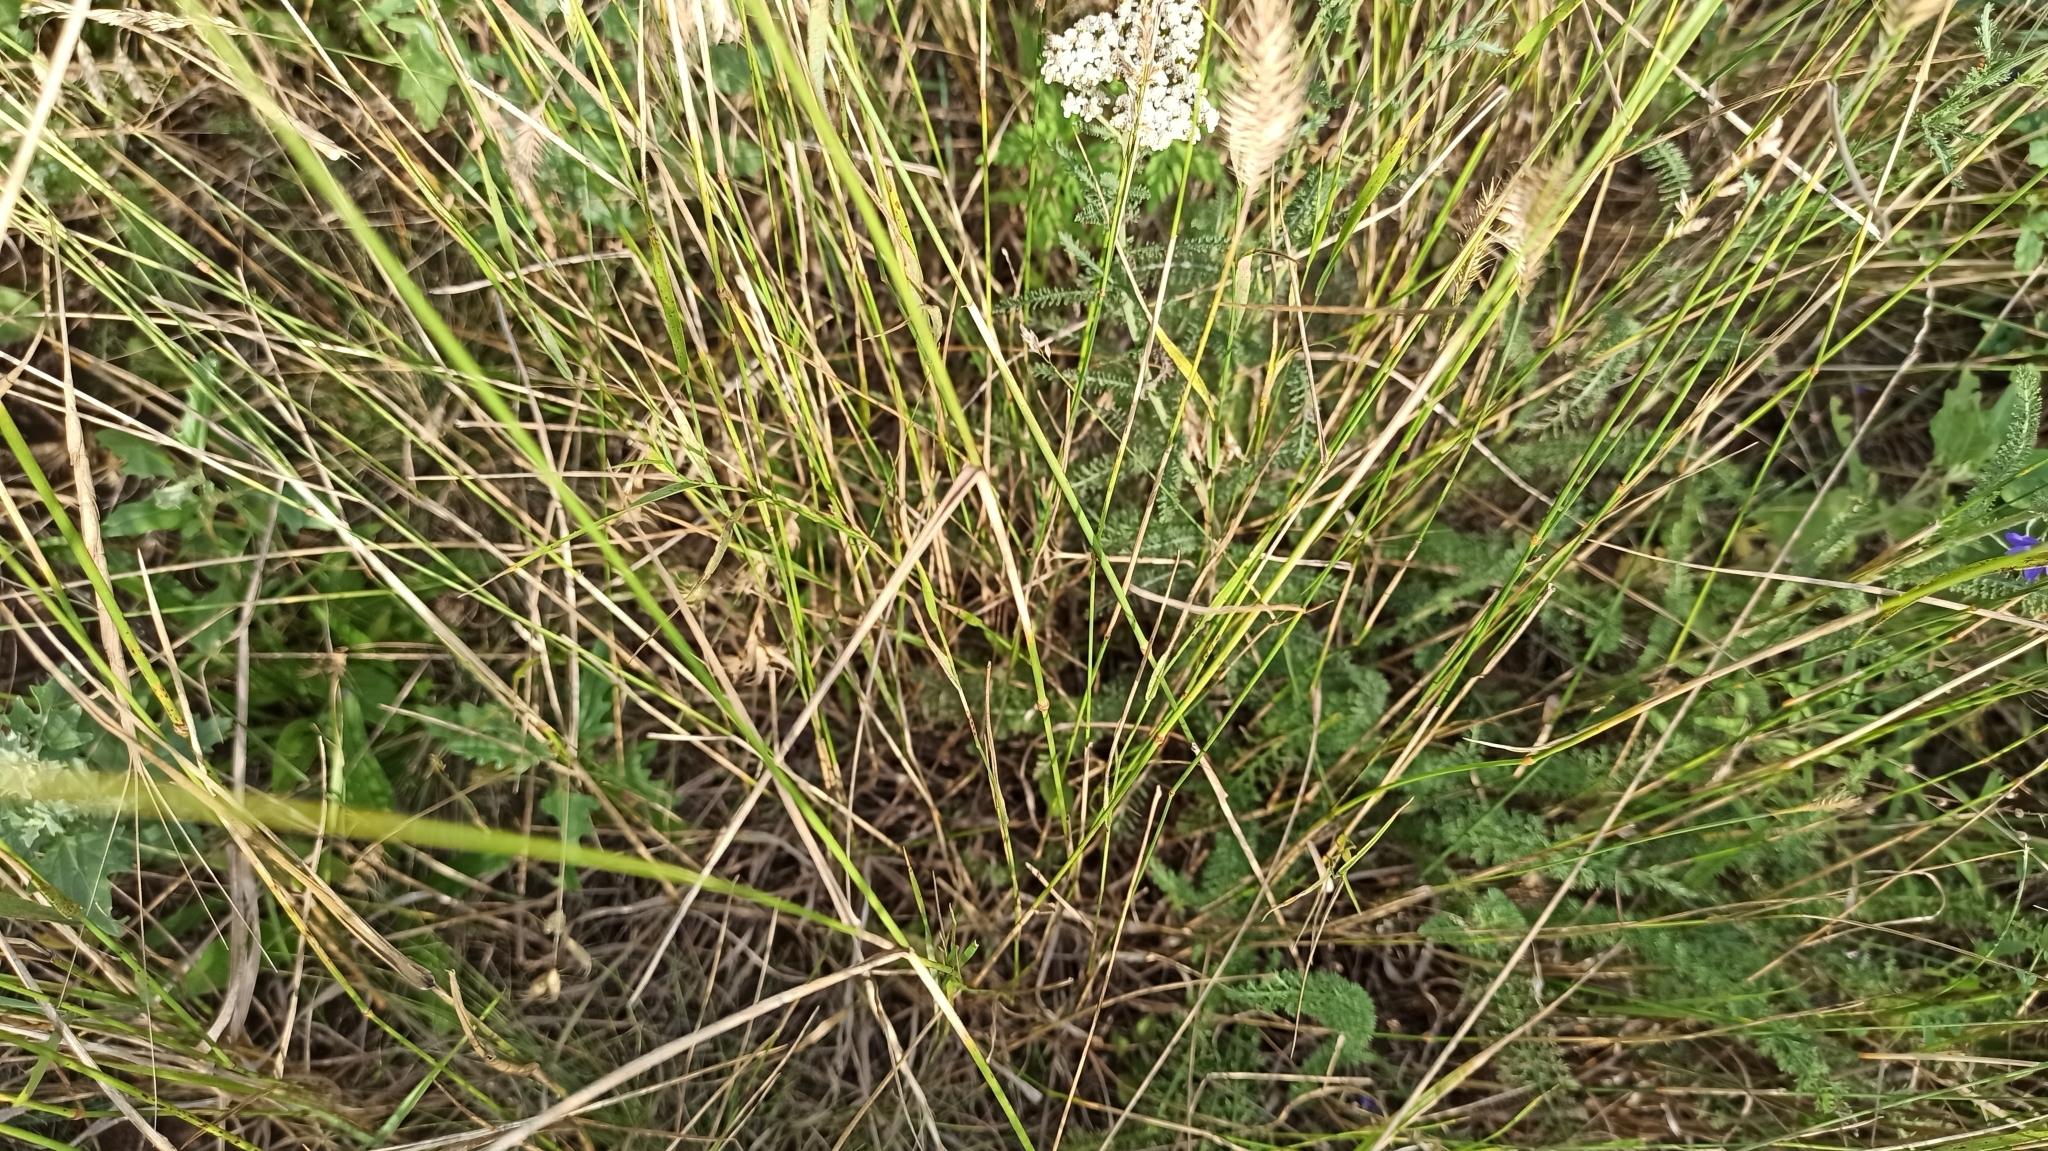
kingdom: Plantae
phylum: Tracheophyta
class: Liliopsida
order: Poales
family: Poaceae
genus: Agropyron
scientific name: Agropyron cristatum
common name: Crested wheatgrass
